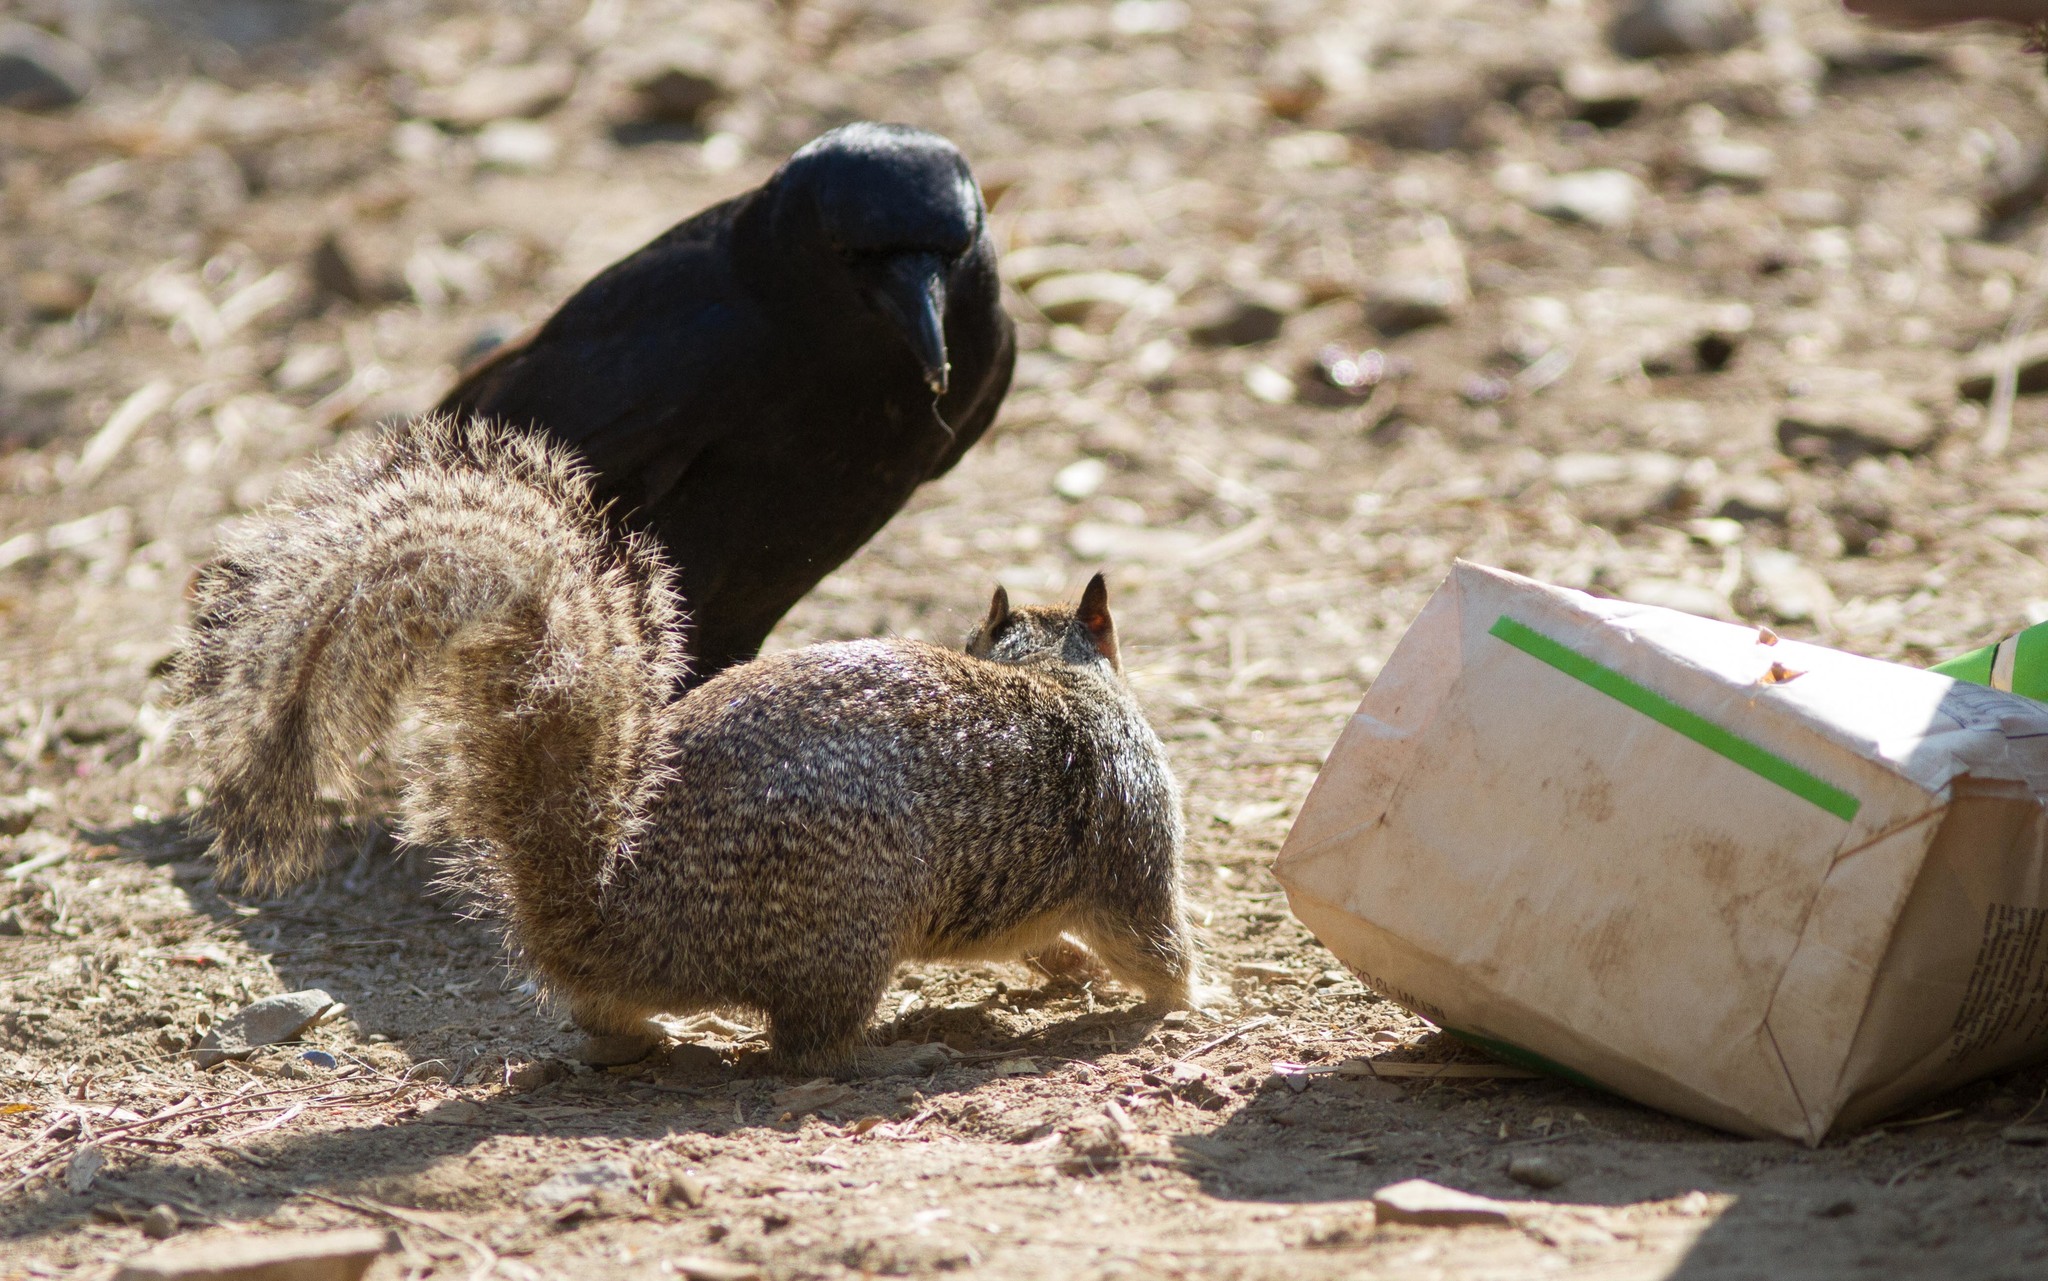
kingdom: Animalia
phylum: Chordata
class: Aves
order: Passeriformes
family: Corvidae
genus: Corvus
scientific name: Corvus brachyrhynchos
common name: American crow
